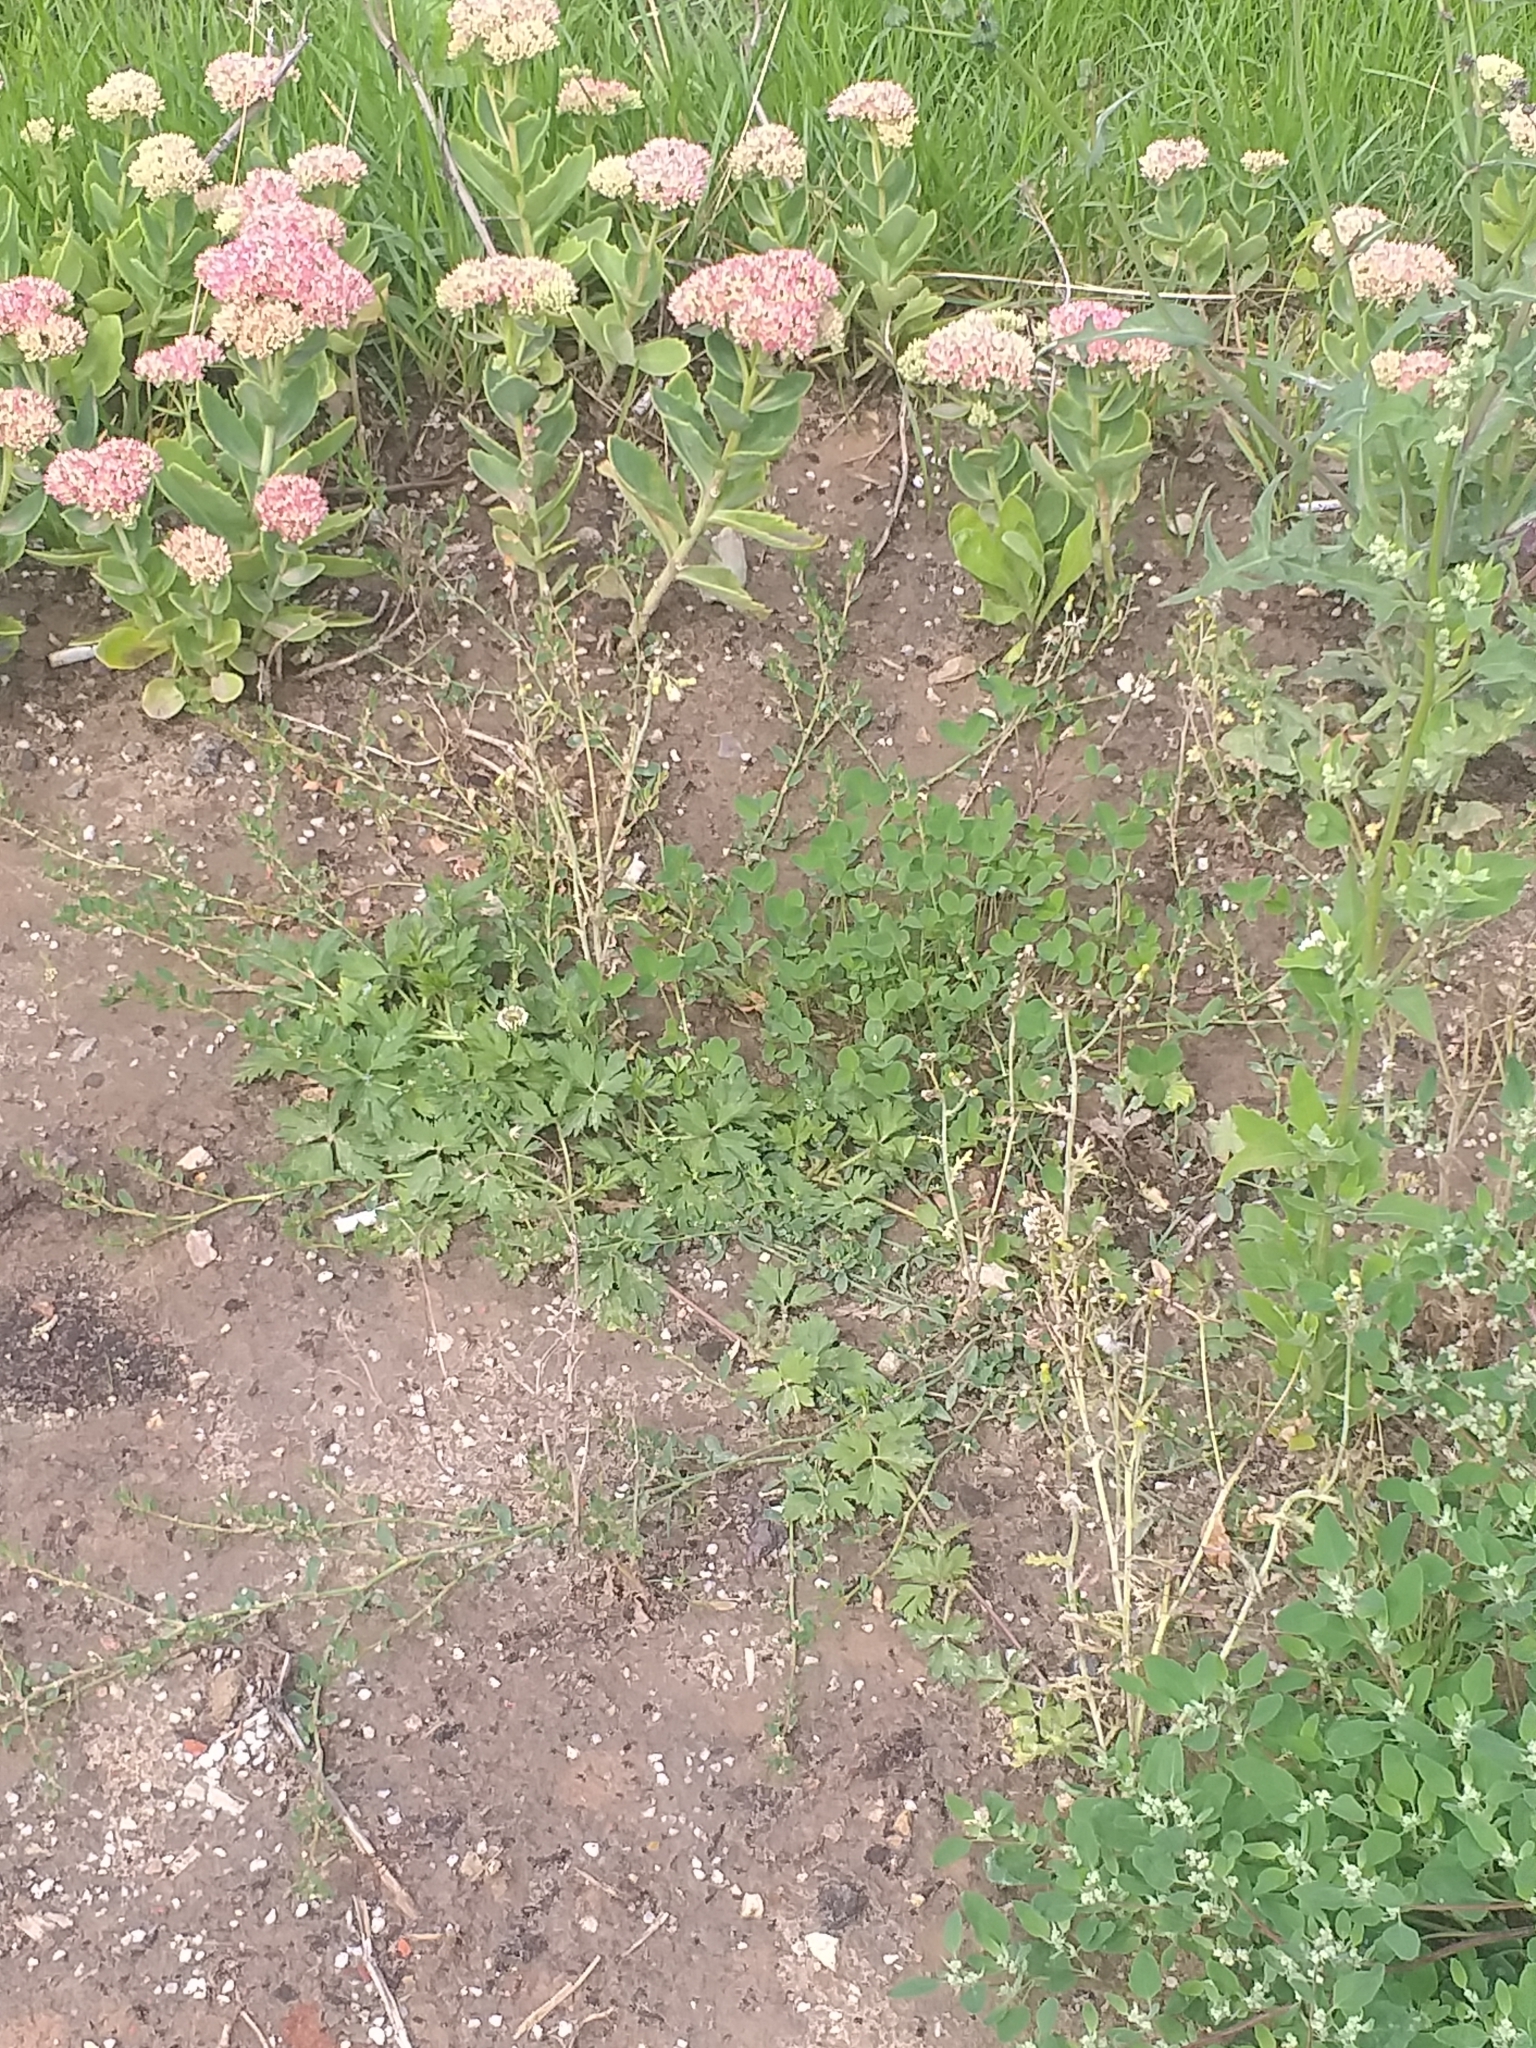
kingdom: Plantae
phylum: Tracheophyta
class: Magnoliopsida
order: Ranunculales
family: Ranunculaceae
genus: Ranunculus
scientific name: Ranunculus repens
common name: Creeping buttercup
